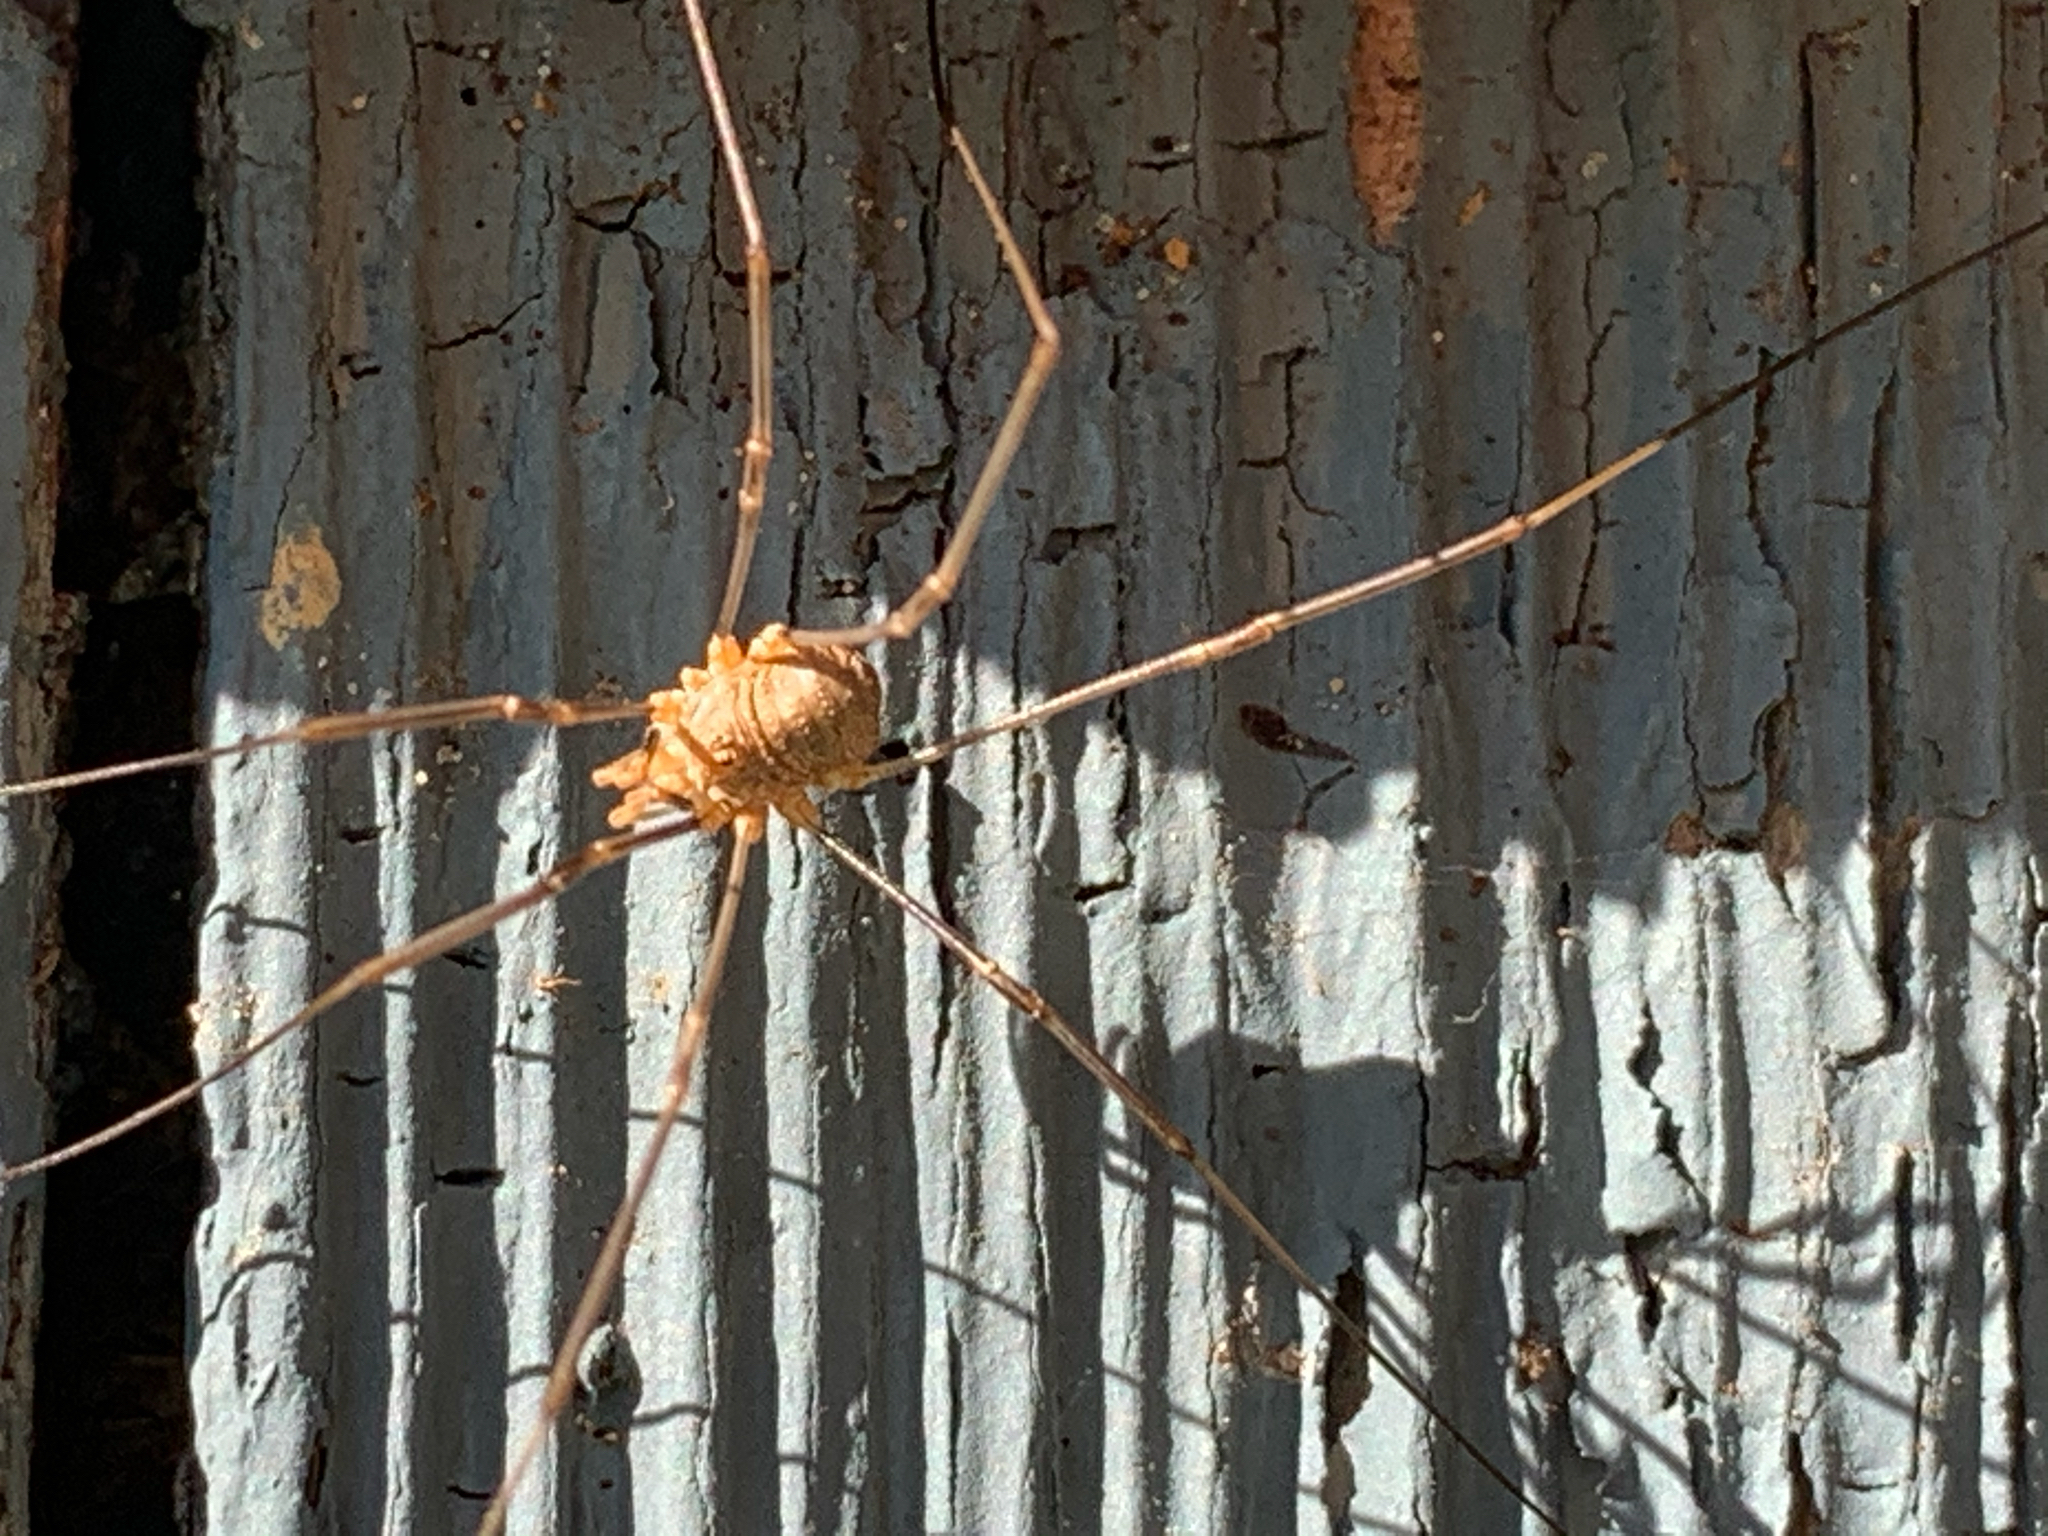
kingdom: Animalia
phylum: Arthropoda
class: Arachnida
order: Opiliones
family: Phalangiidae
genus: Phalangium
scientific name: Phalangium opilio
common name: Daddy longleg
